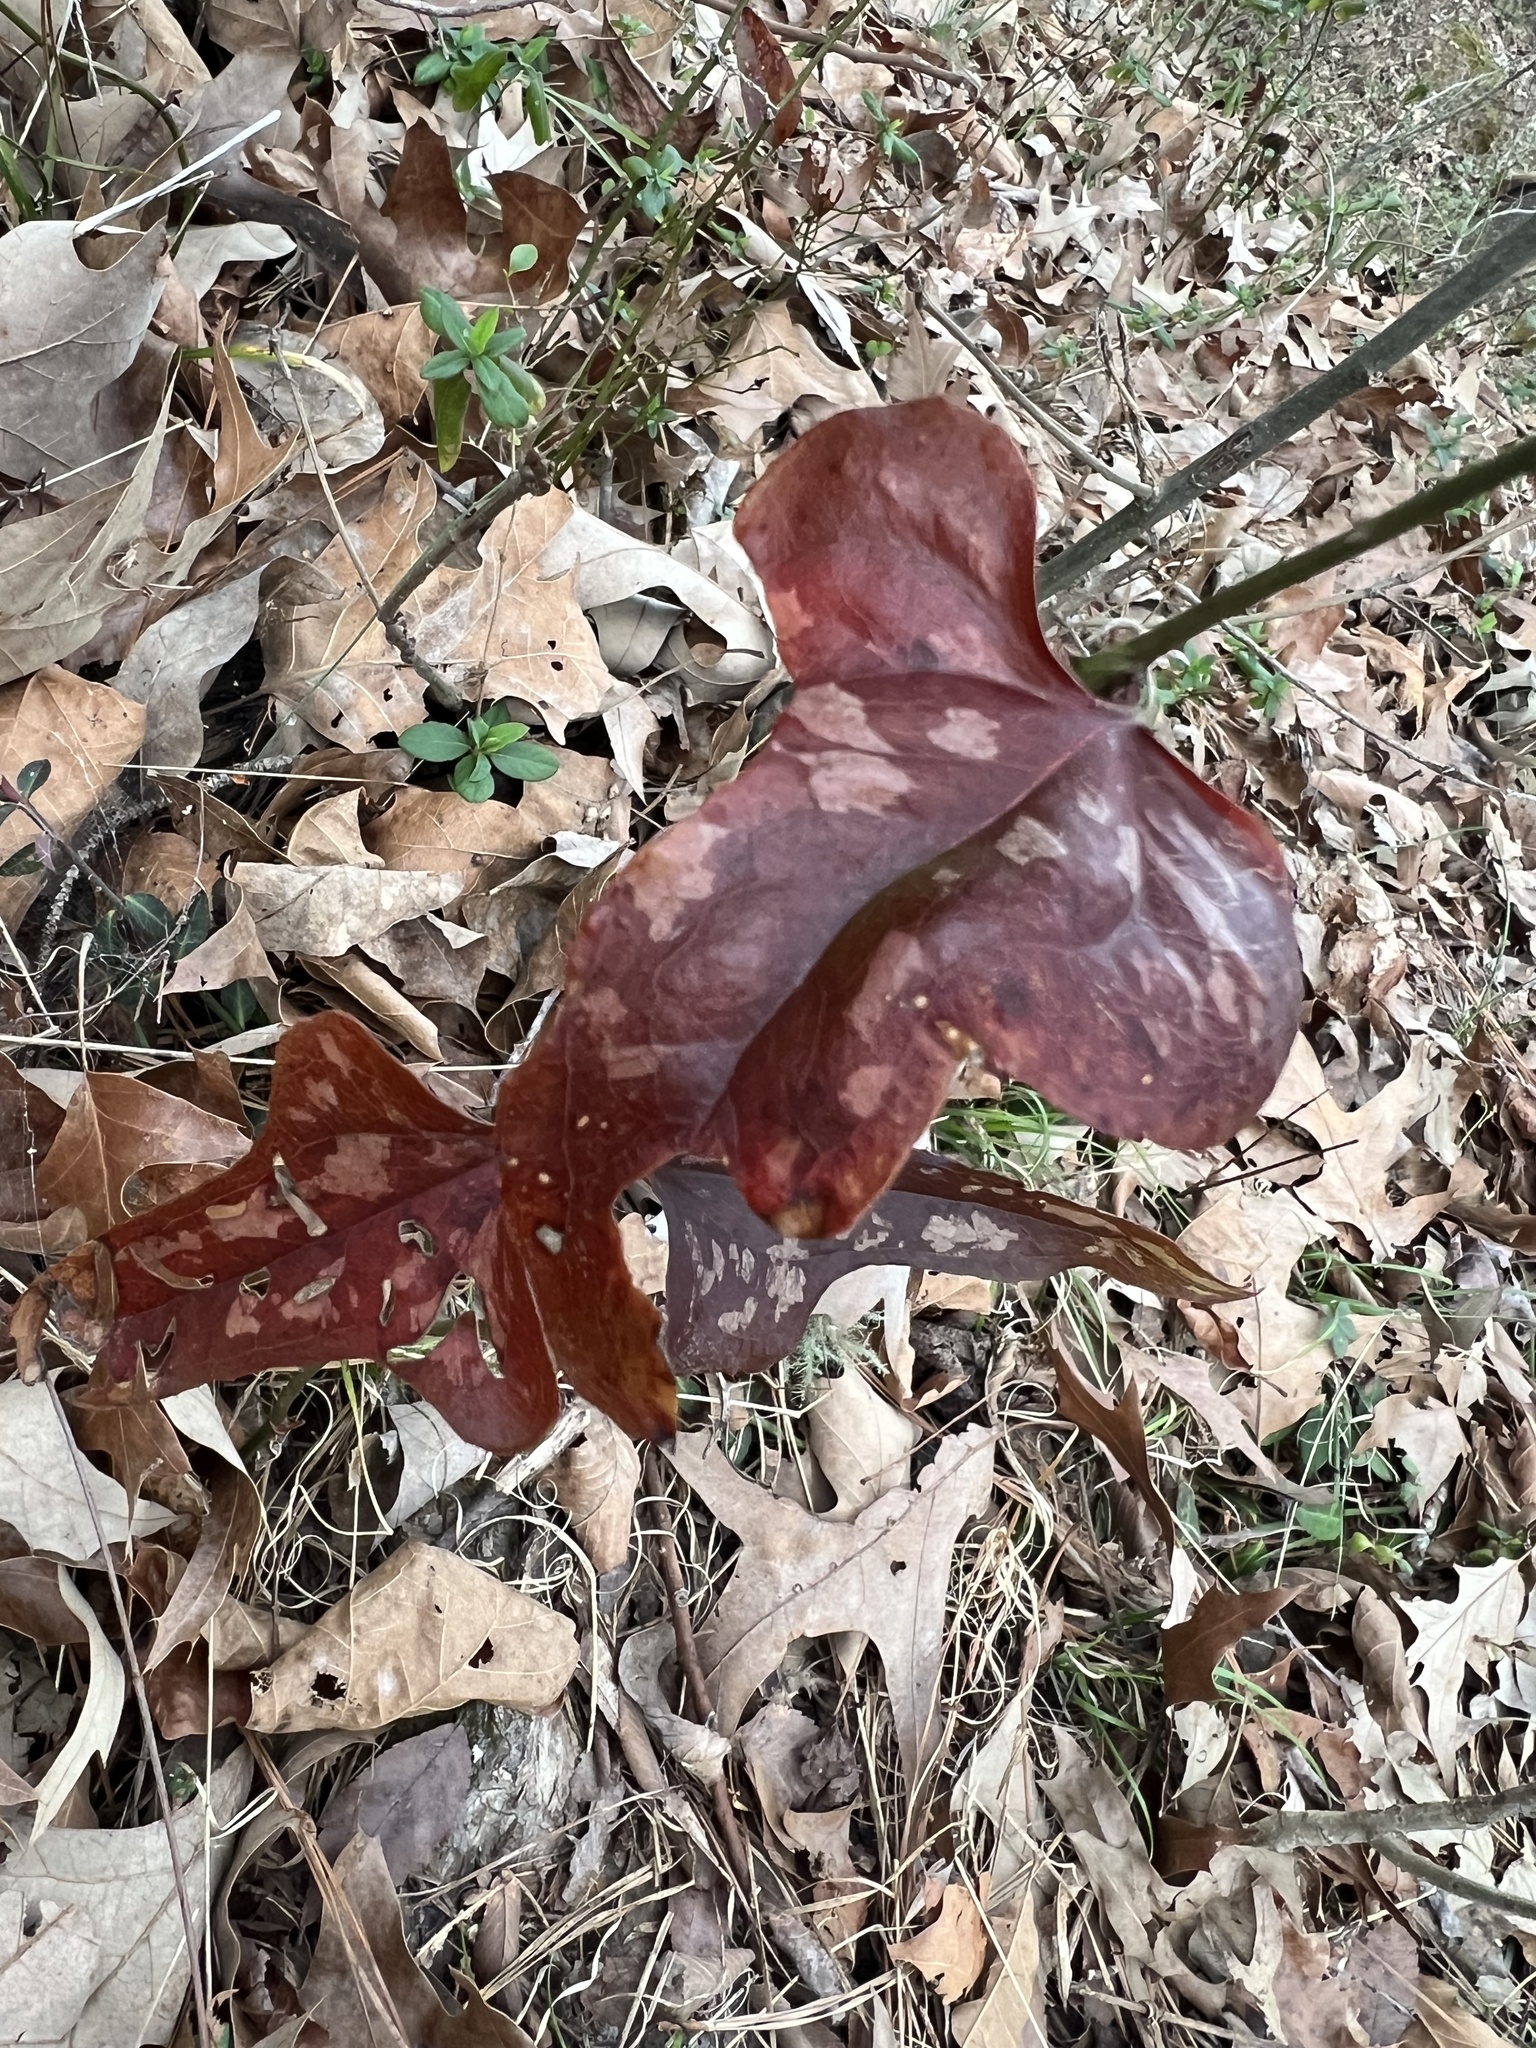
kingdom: Plantae
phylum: Tracheophyta
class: Liliopsida
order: Liliales
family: Smilacaceae
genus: Smilax
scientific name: Smilax bona-nox
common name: Catbrier
